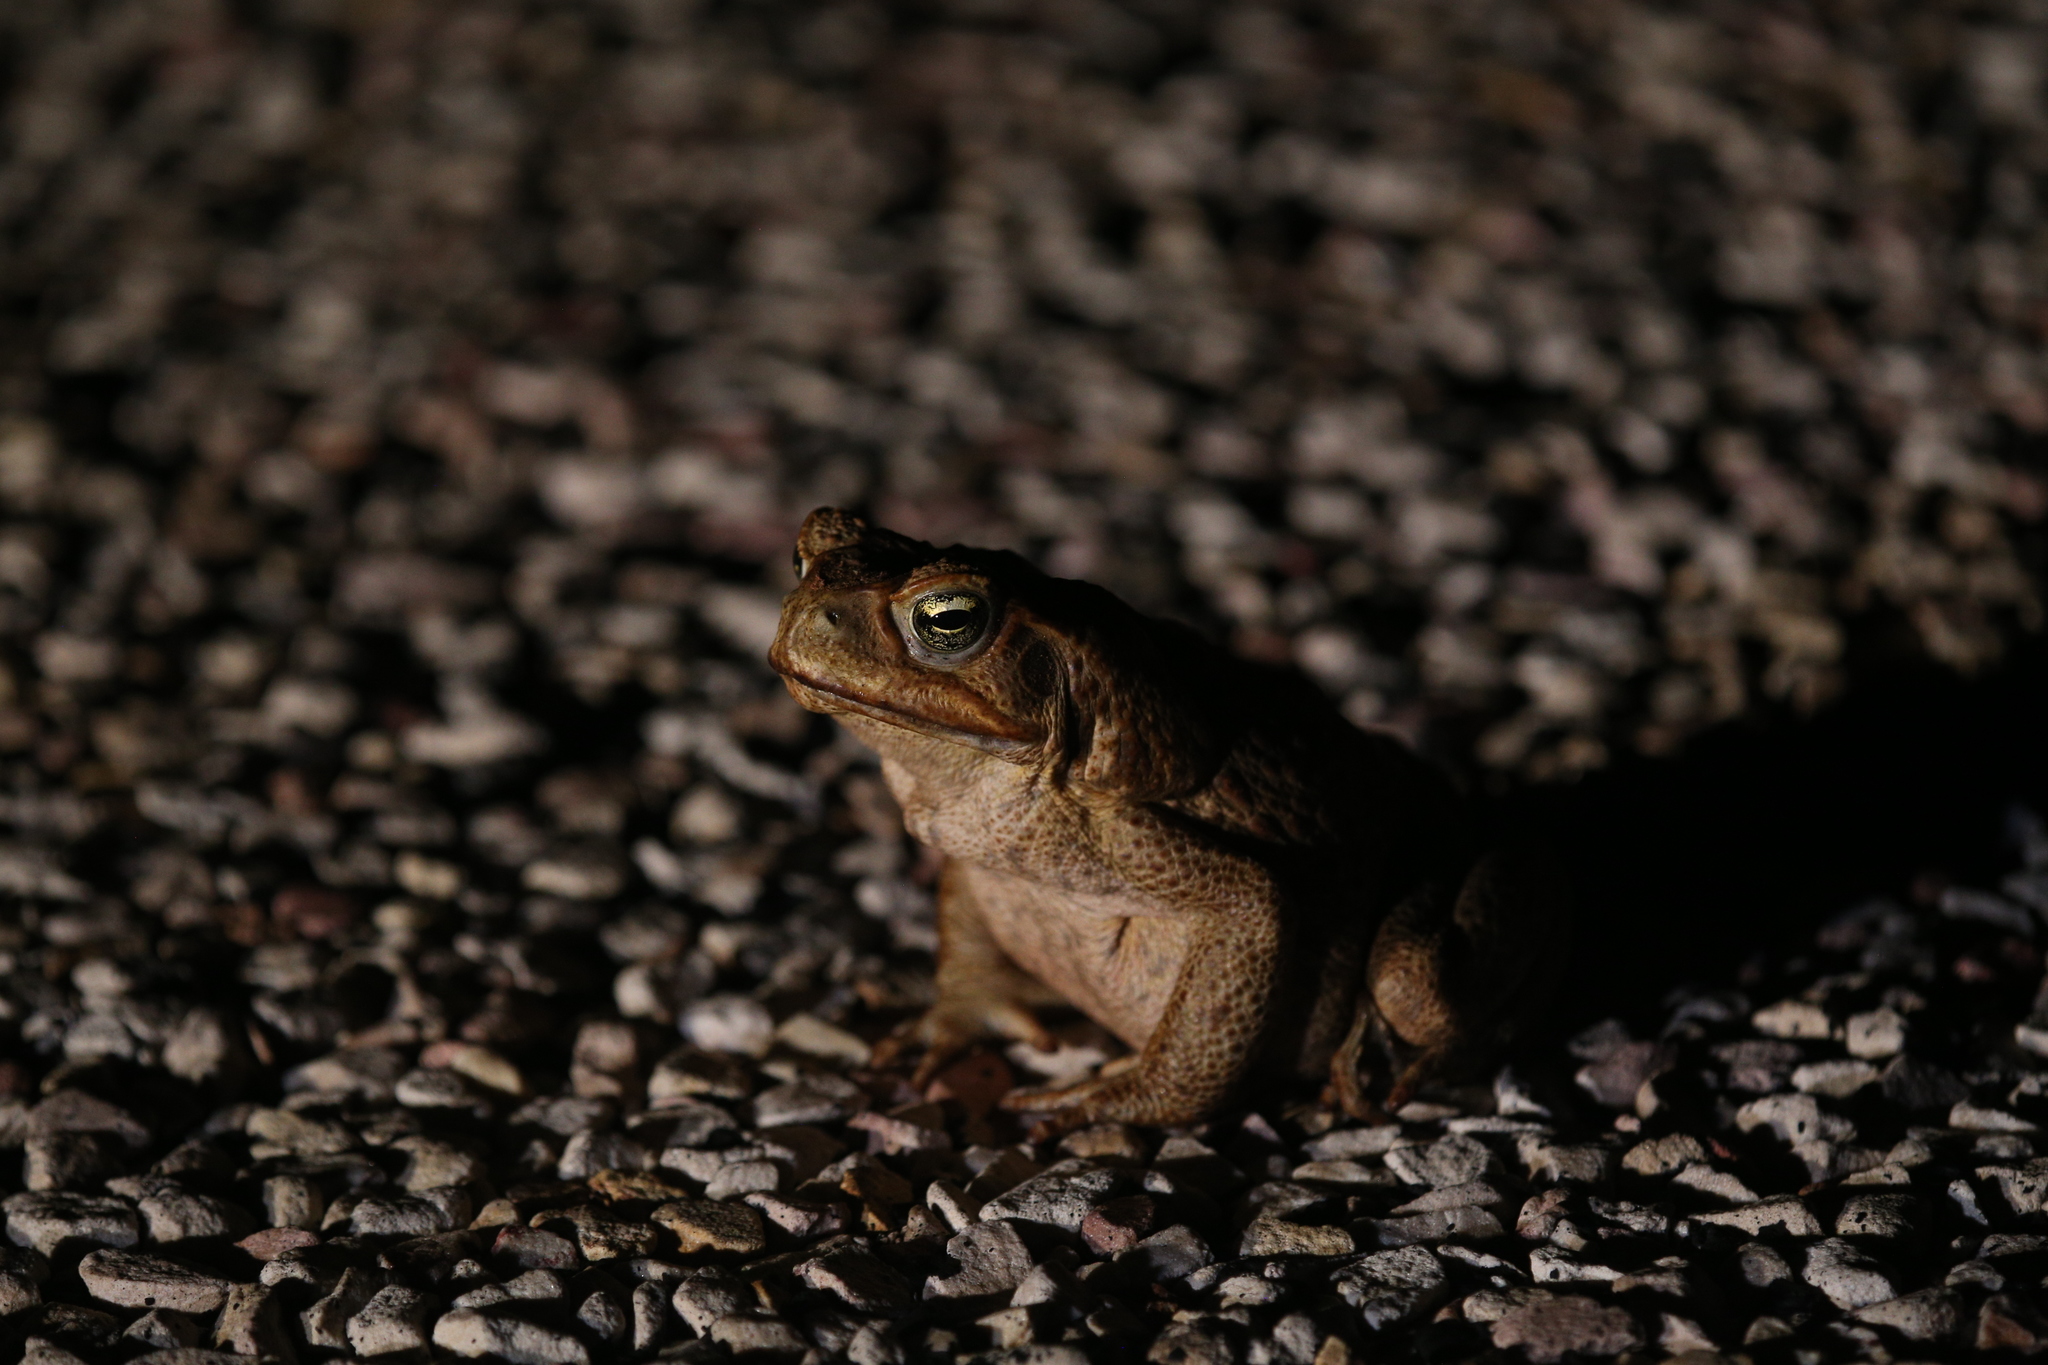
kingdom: Animalia
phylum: Chordata
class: Amphibia
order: Anura
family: Bufonidae
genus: Rhinella
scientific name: Rhinella marina
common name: Cane toad
